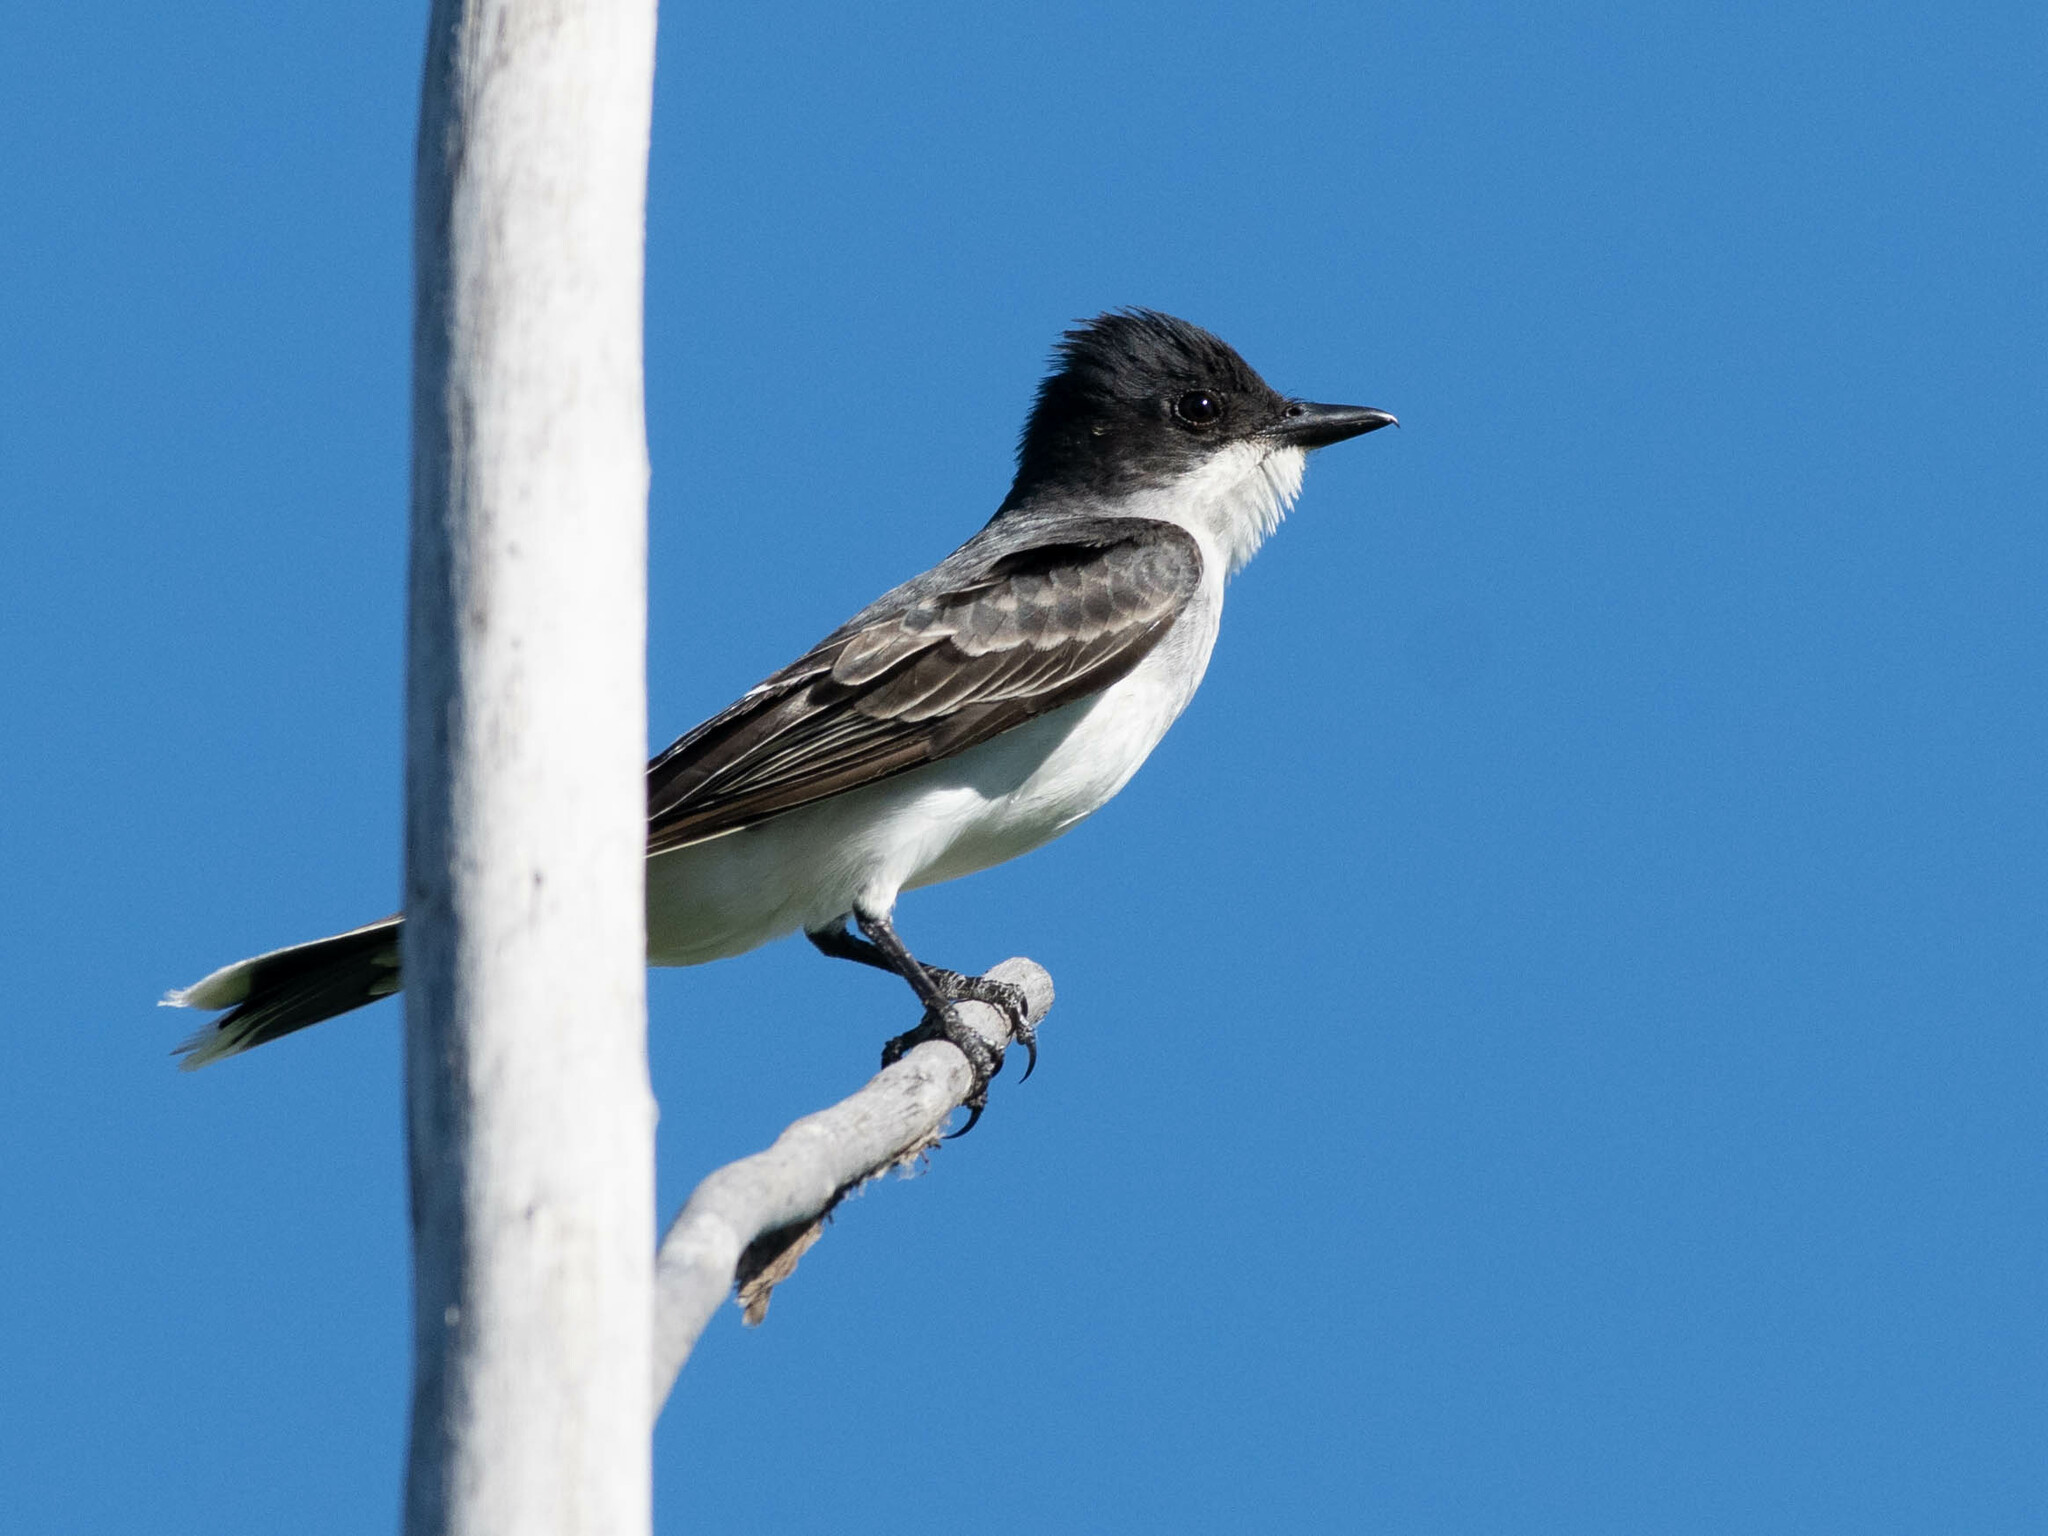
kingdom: Animalia
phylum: Chordata
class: Aves
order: Passeriformes
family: Tyrannidae
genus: Tyrannus
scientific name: Tyrannus tyrannus
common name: Eastern kingbird
